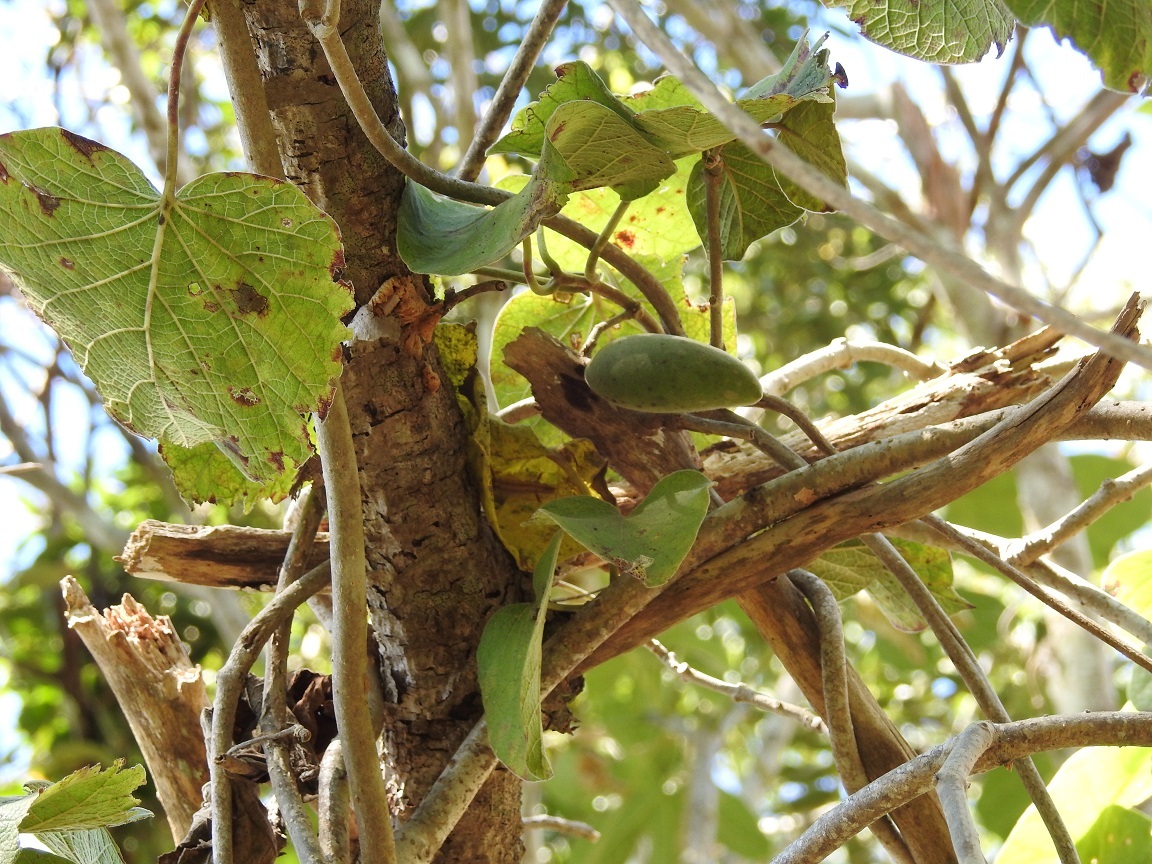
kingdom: Plantae
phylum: Tracheophyta
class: Magnoliopsida
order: Gentianales
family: Apocynaceae
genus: Ruehssia
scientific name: Ruehssia gualanensis
